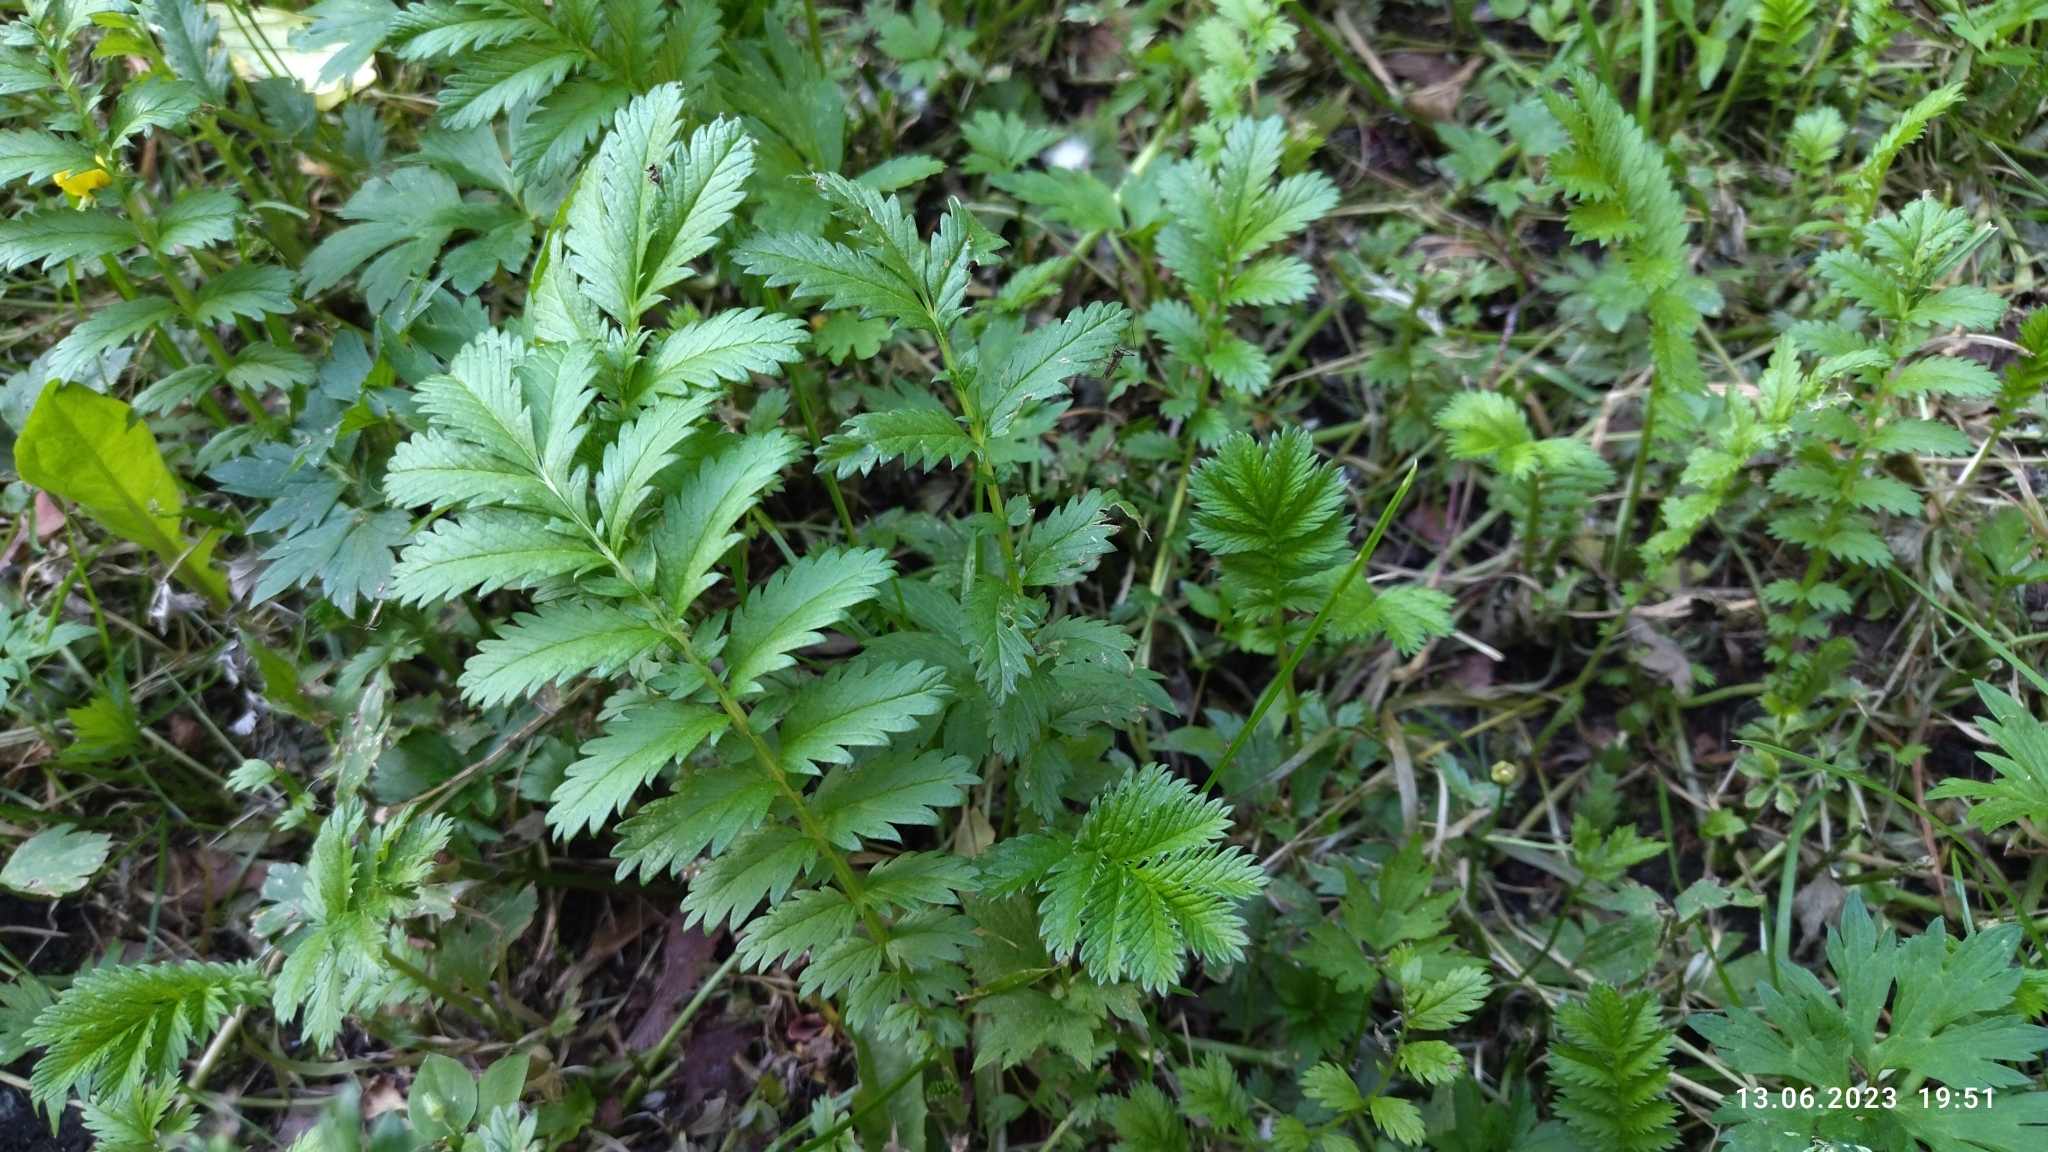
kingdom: Plantae
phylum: Tracheophyta
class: Magnoliopsida
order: Rosales
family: Rosaceae
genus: Argentina
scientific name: Argentina anserina
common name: Common silverweed
